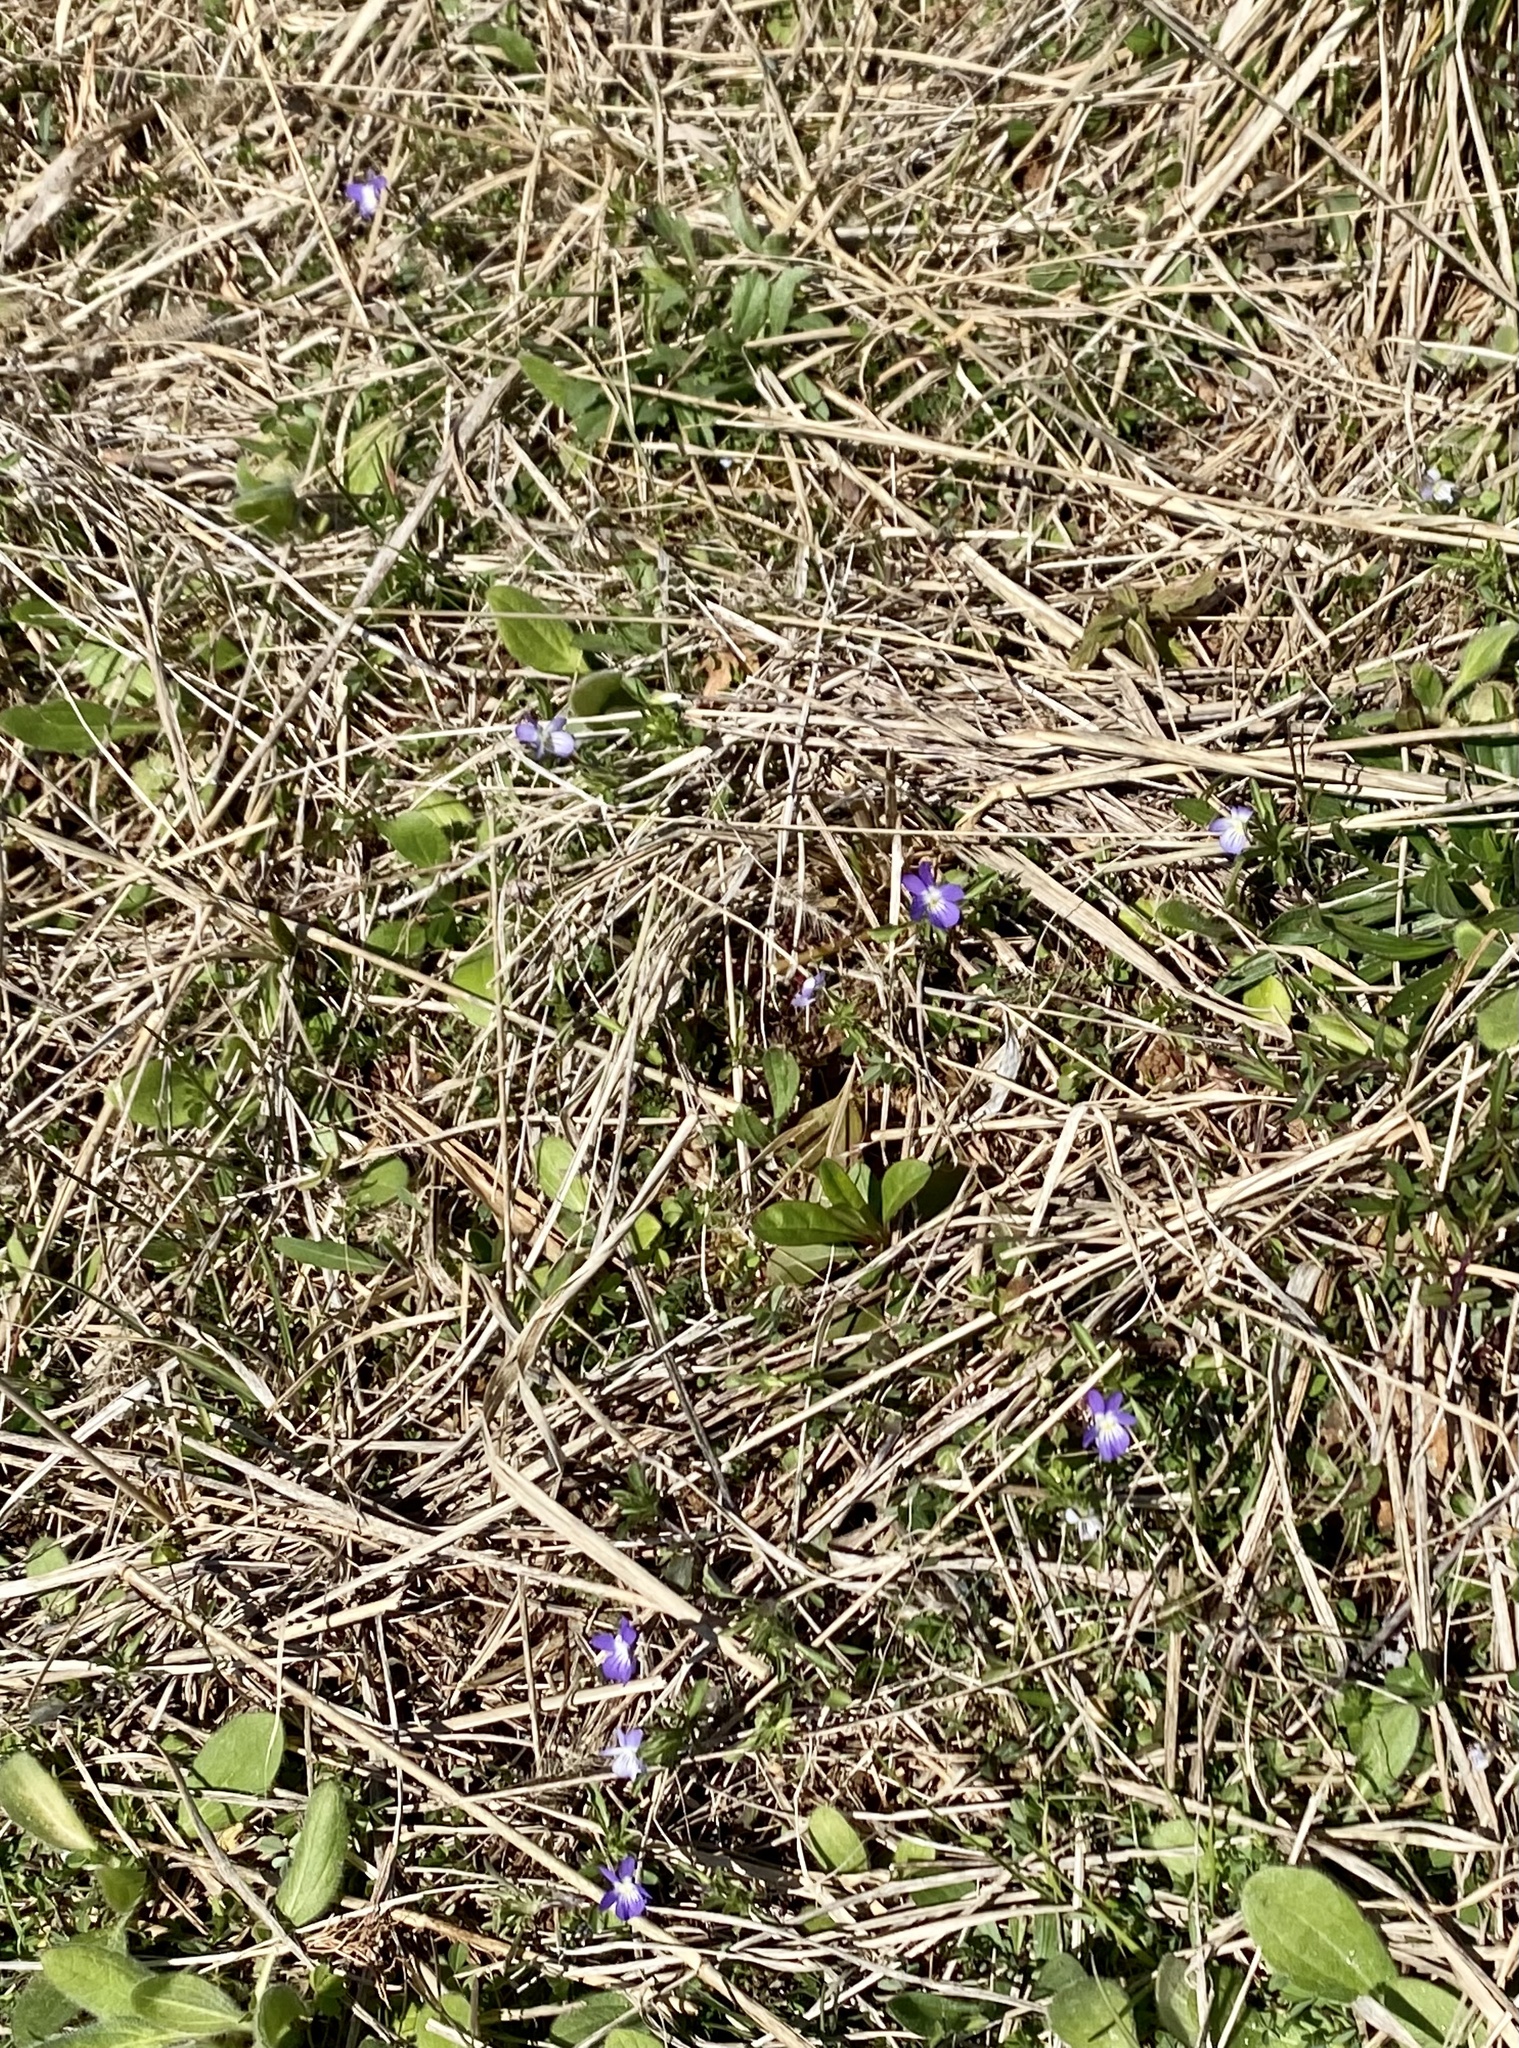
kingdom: Plantae
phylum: Tracheophyta
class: Magnoliopsida
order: Malpighiales
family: Violaceae
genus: Viola
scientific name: Viola rafinesquei
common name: American field pansy
